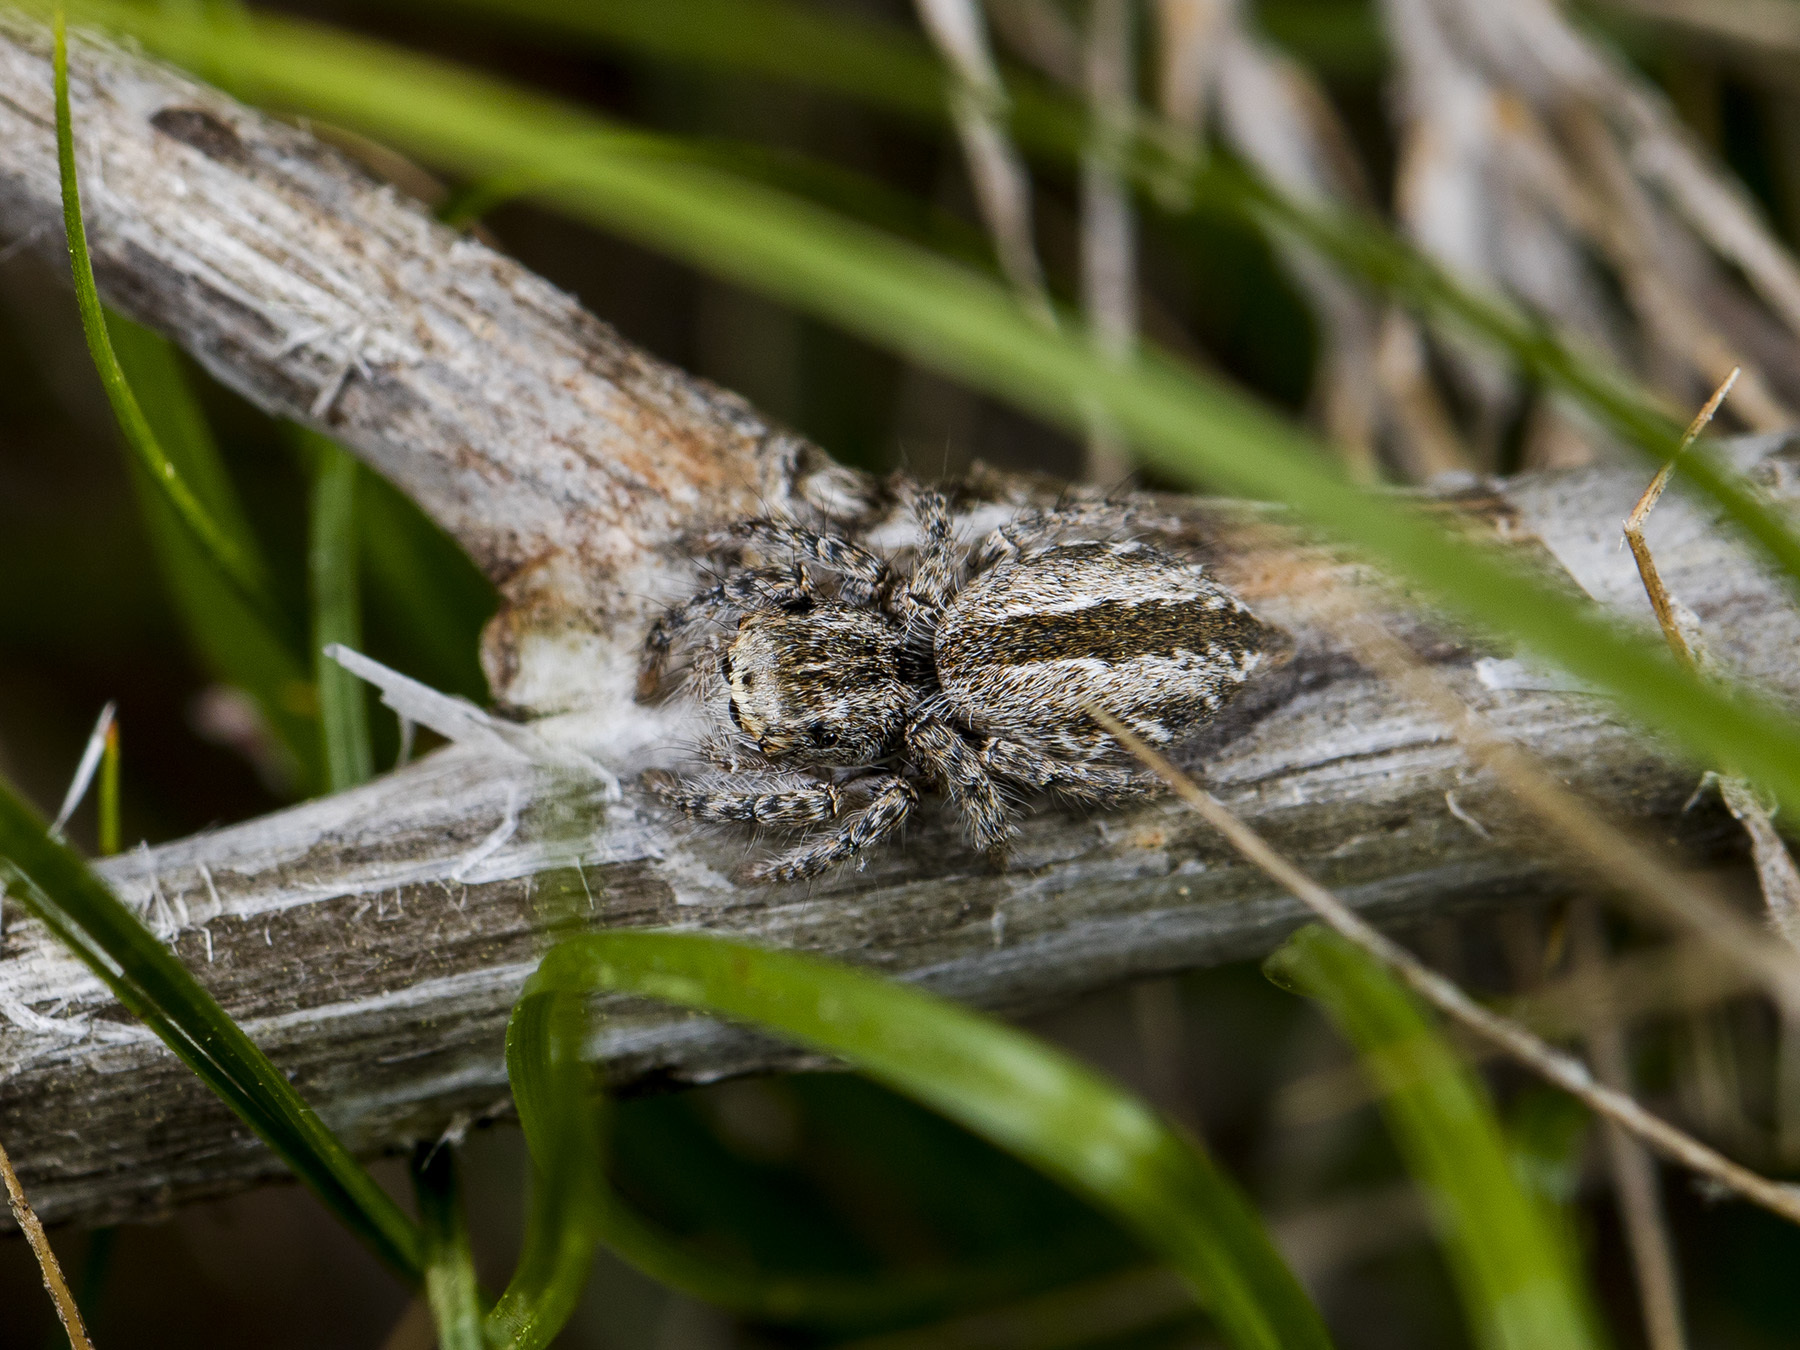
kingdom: Animalia
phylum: Arthropoda
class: Arachnida
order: Araneae
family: Salticidae
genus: Mogrus
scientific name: Mogrus larisae
